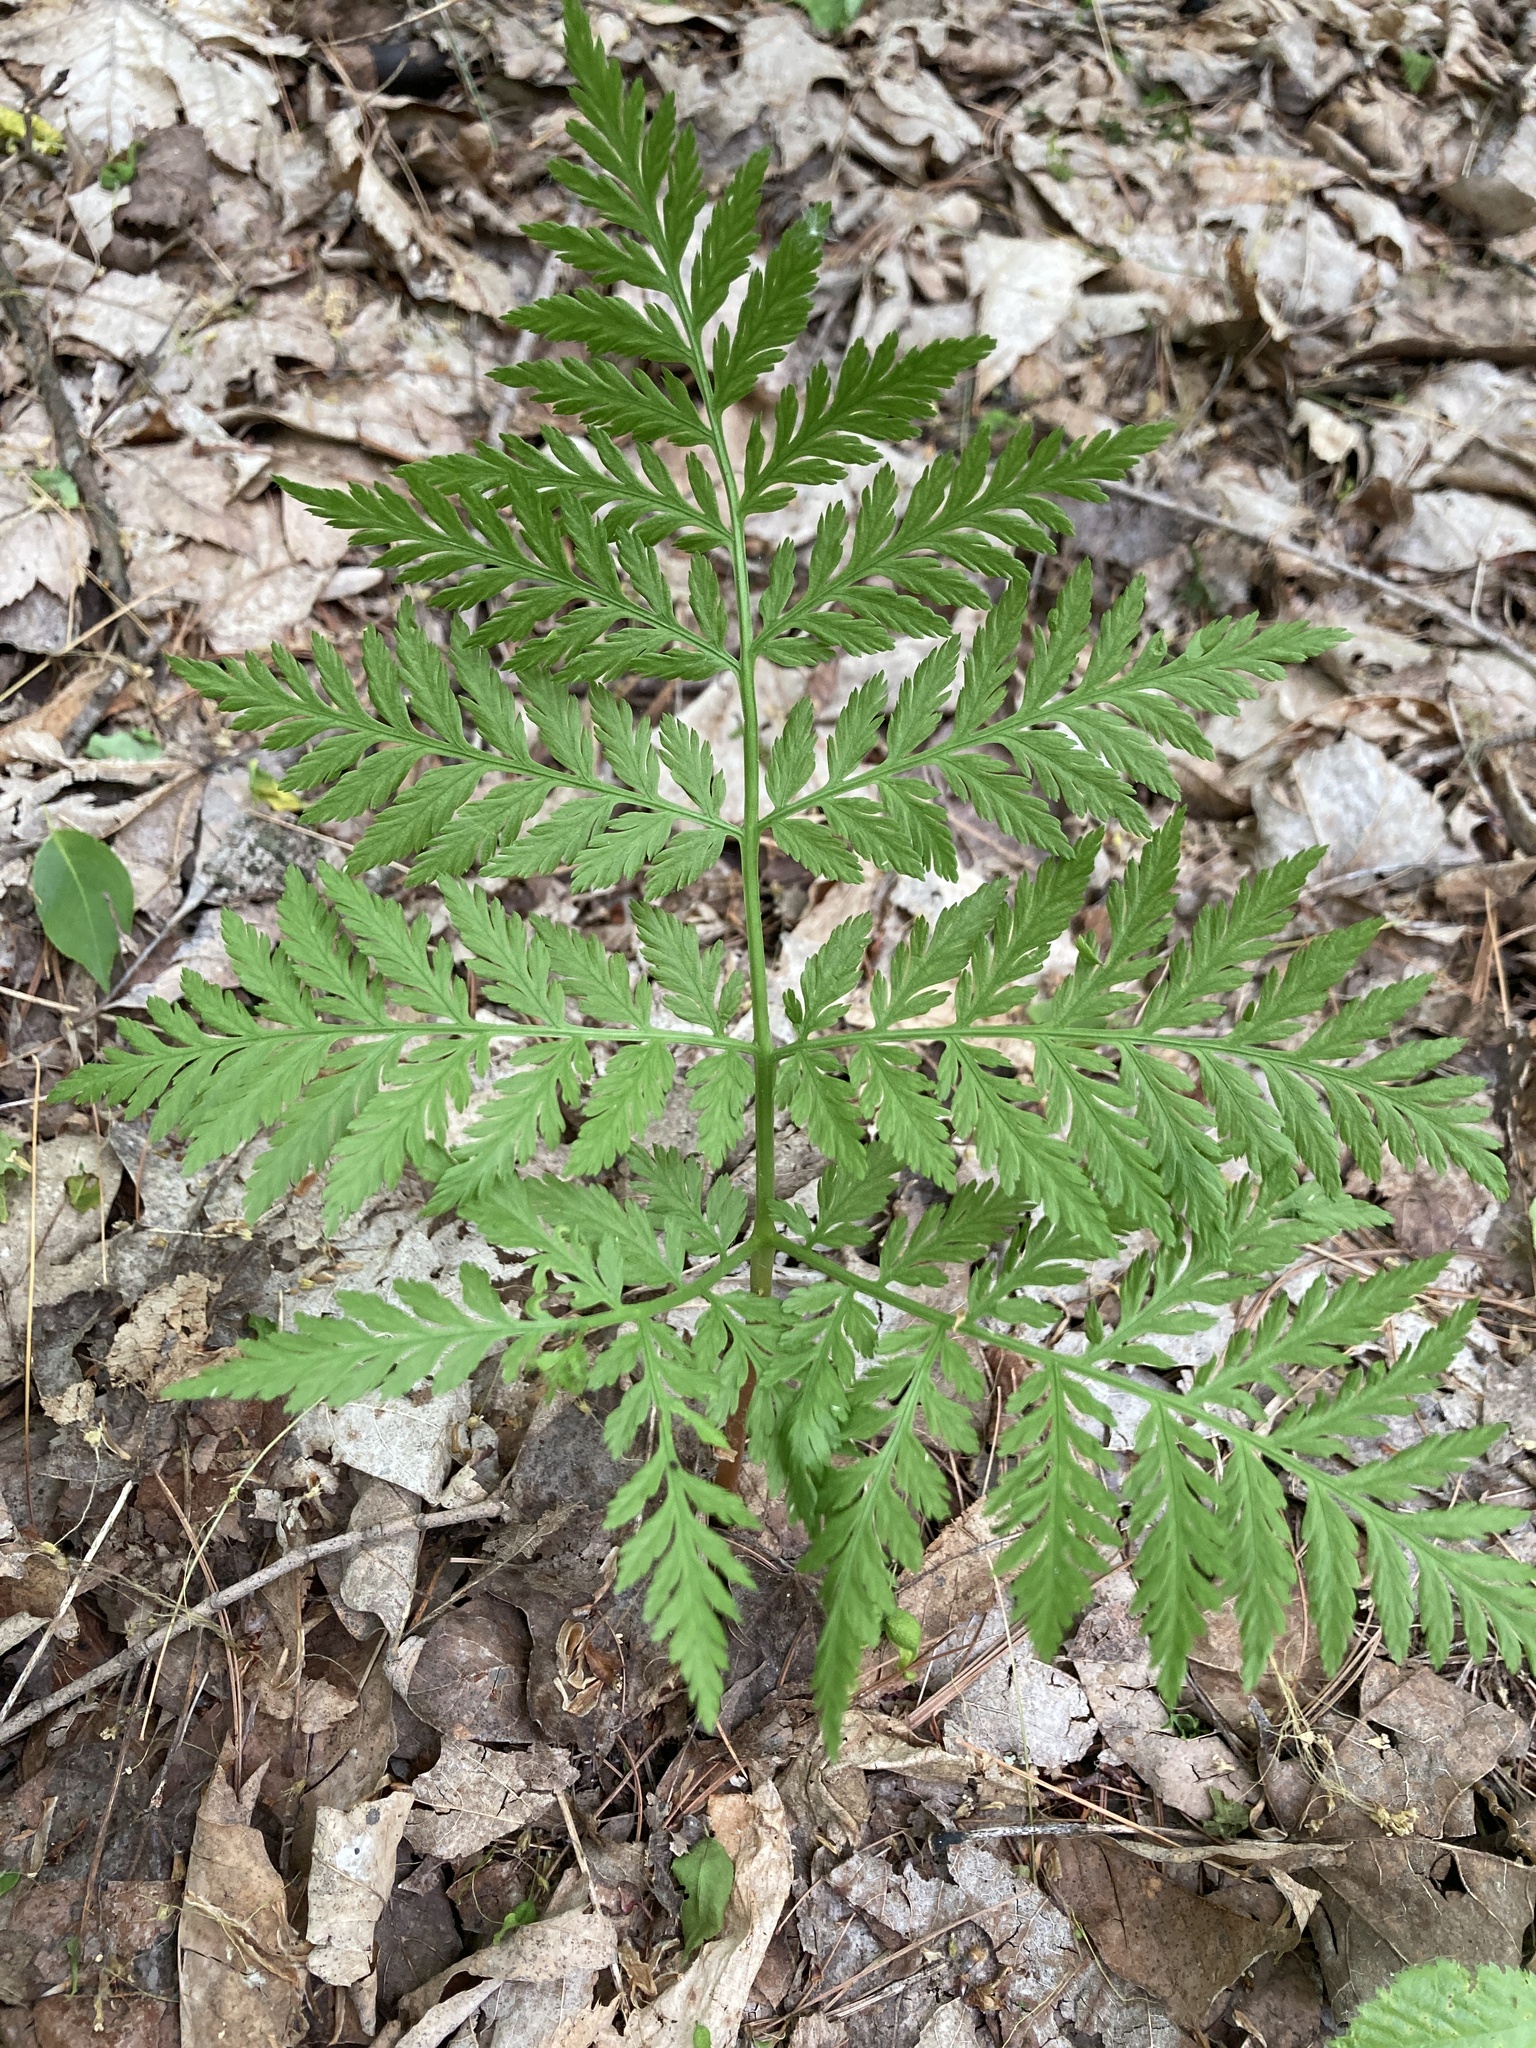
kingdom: Plantae
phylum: Tracheophyta
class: Polypodiopsida
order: Ophioglossales
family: Ophioglossaceae
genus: Botrypus
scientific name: Botrypus virginianus
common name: Common grapefern
